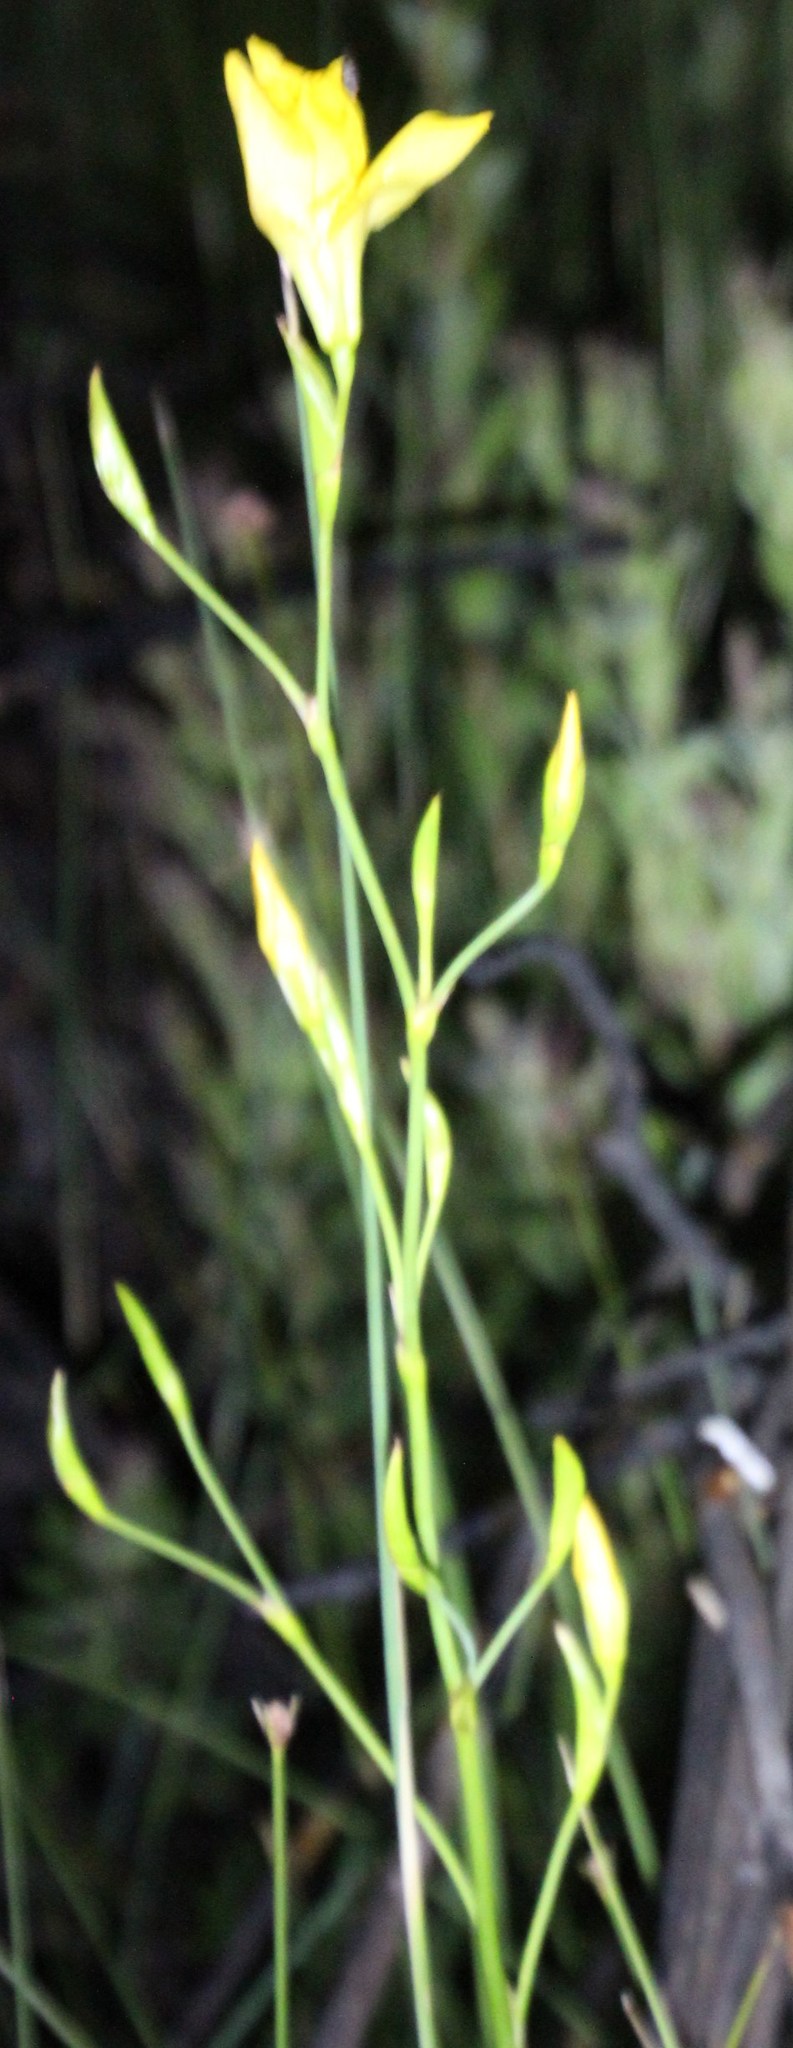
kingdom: Plantae
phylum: Tracheophyta
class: Liliopsida
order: Asparagales
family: Iridaceae
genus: Moraea
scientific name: Moraea ramosissima
